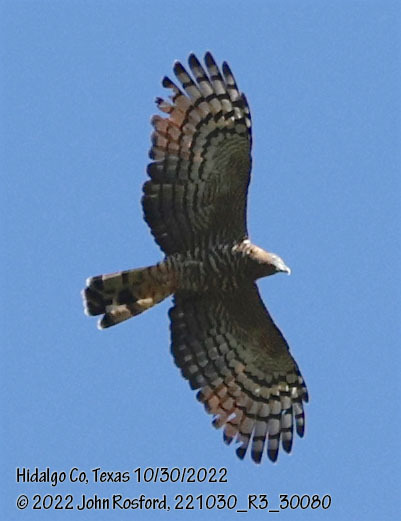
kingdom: Animalia
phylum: Chordata
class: Aves
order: Accipitriformes
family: Accipitridae
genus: Chondrohierax
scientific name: Chondrohierax uncinatus
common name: Hook-billed kite
